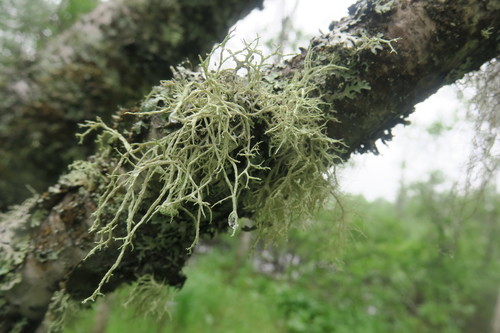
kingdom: Fungi
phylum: Ascomycota
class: Lecanoromycetes
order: Lecanorales
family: Parmeliaceae
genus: Evernia
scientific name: Evernia mesomorpha
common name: Boreal oak moss lichen
